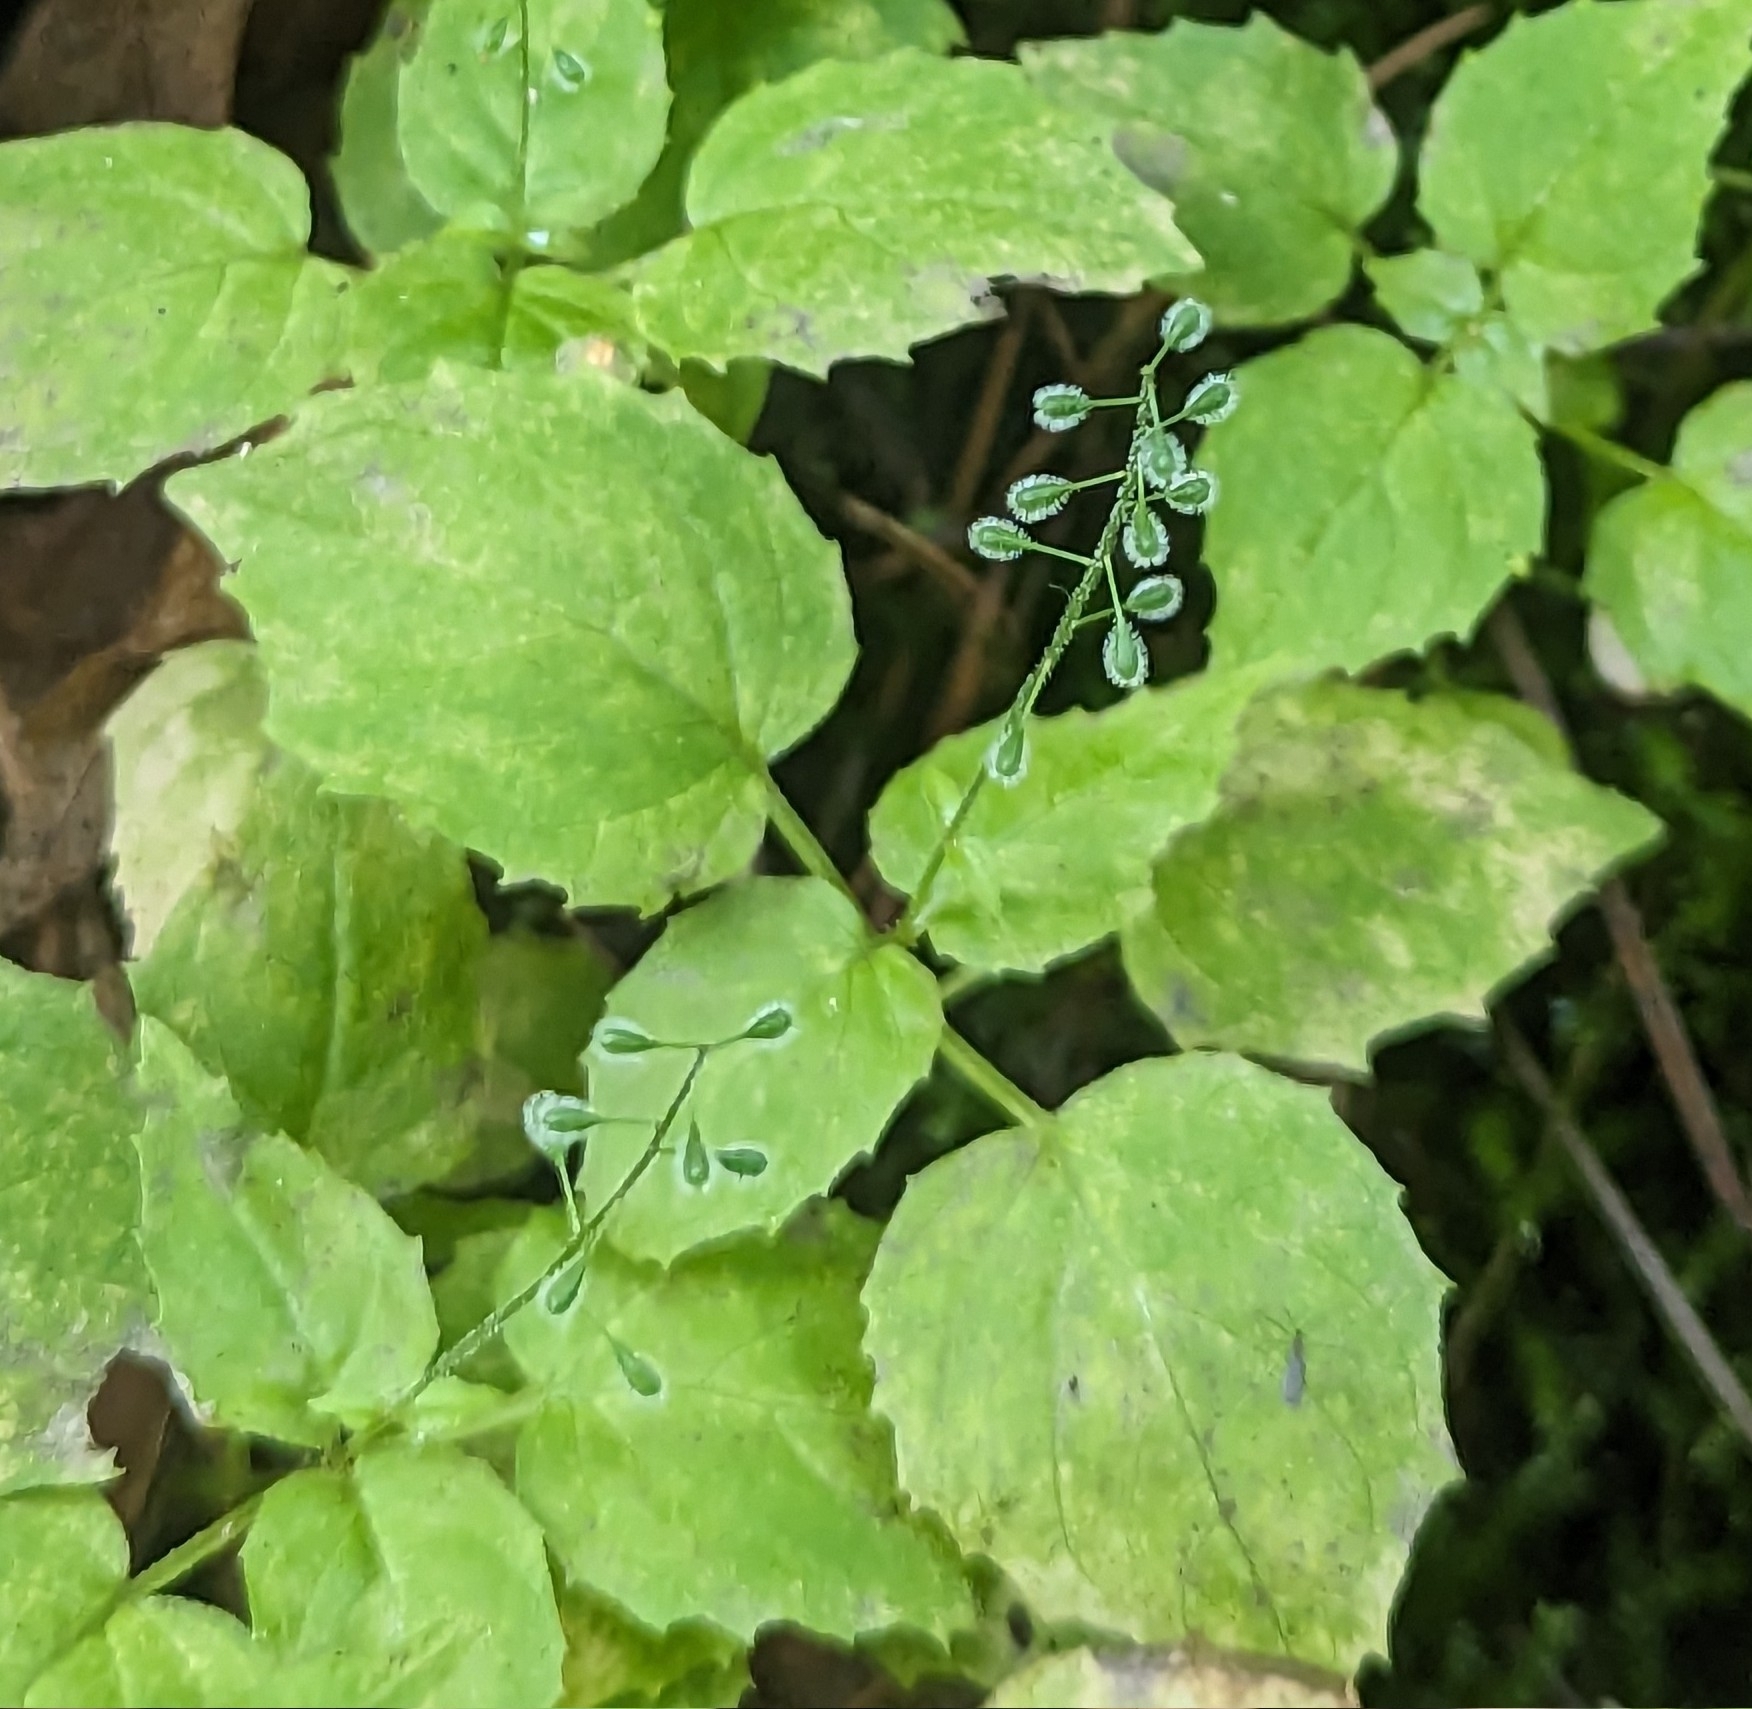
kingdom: Plantae
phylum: Tracheophyta
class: Magnoliopsida
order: Myrtales
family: Onagraceae
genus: Circaea
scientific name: Circaea canadensis
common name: Broad-leaved enchanter's nightshade
